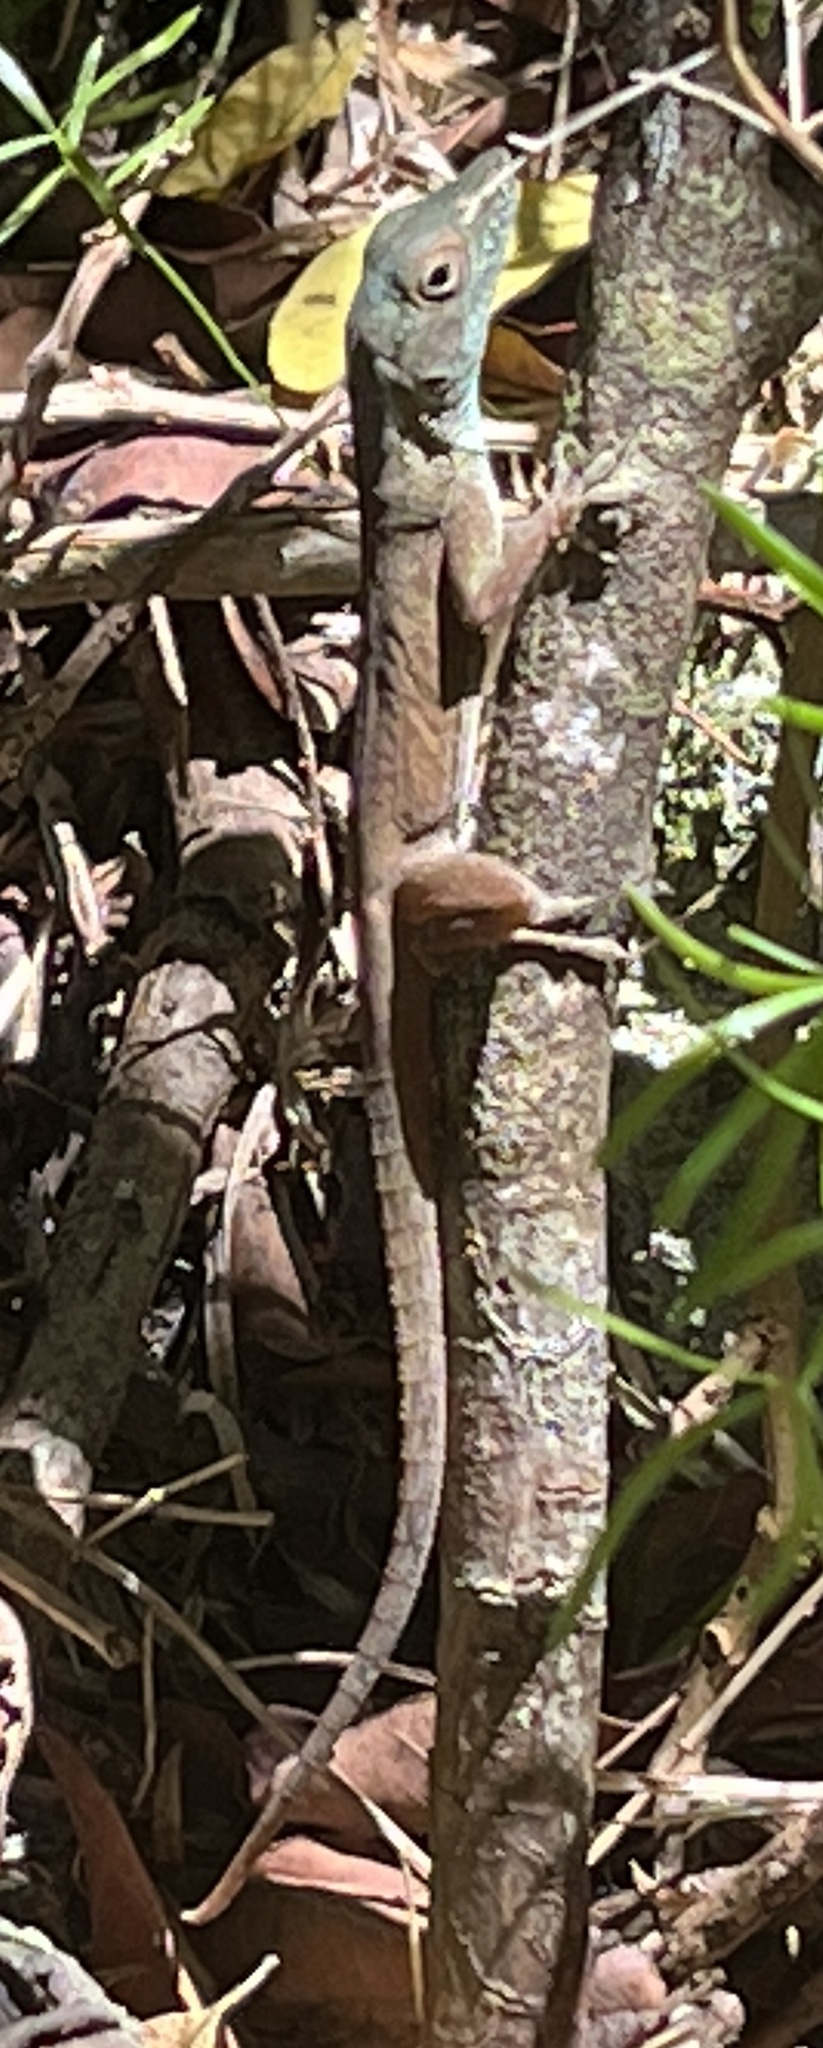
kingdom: Animalia
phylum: Chordata
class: Squamata
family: Dactyloidae
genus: Anolis
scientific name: Anolis grahami
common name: Graham's anole
